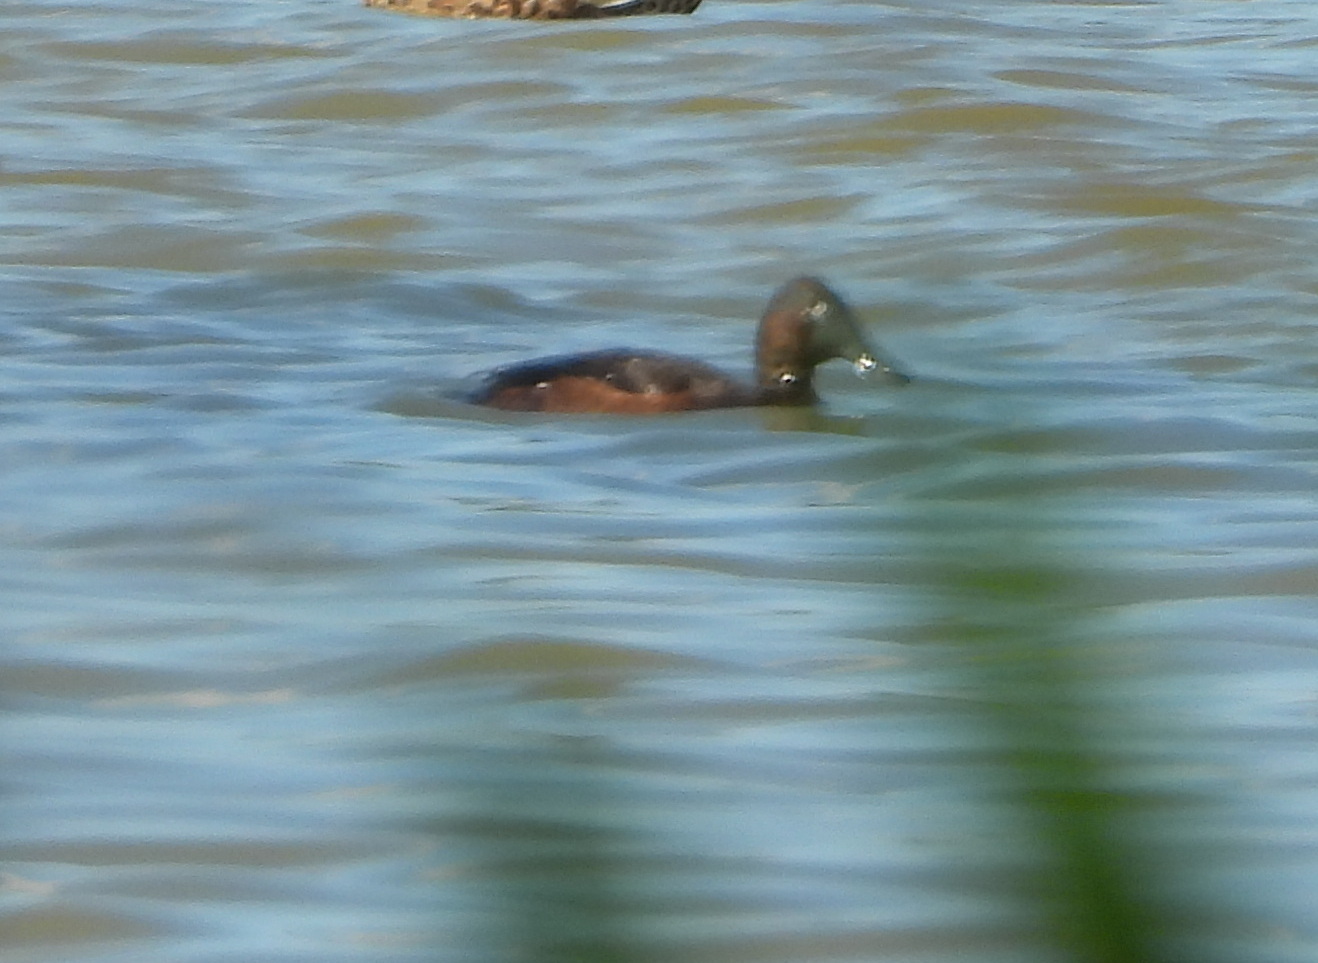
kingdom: Animalia
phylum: Chordata
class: Aves
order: Anseriformes
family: Anatidae
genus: Aythya
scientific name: Aythya nyroca
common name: Ferruginous duck
